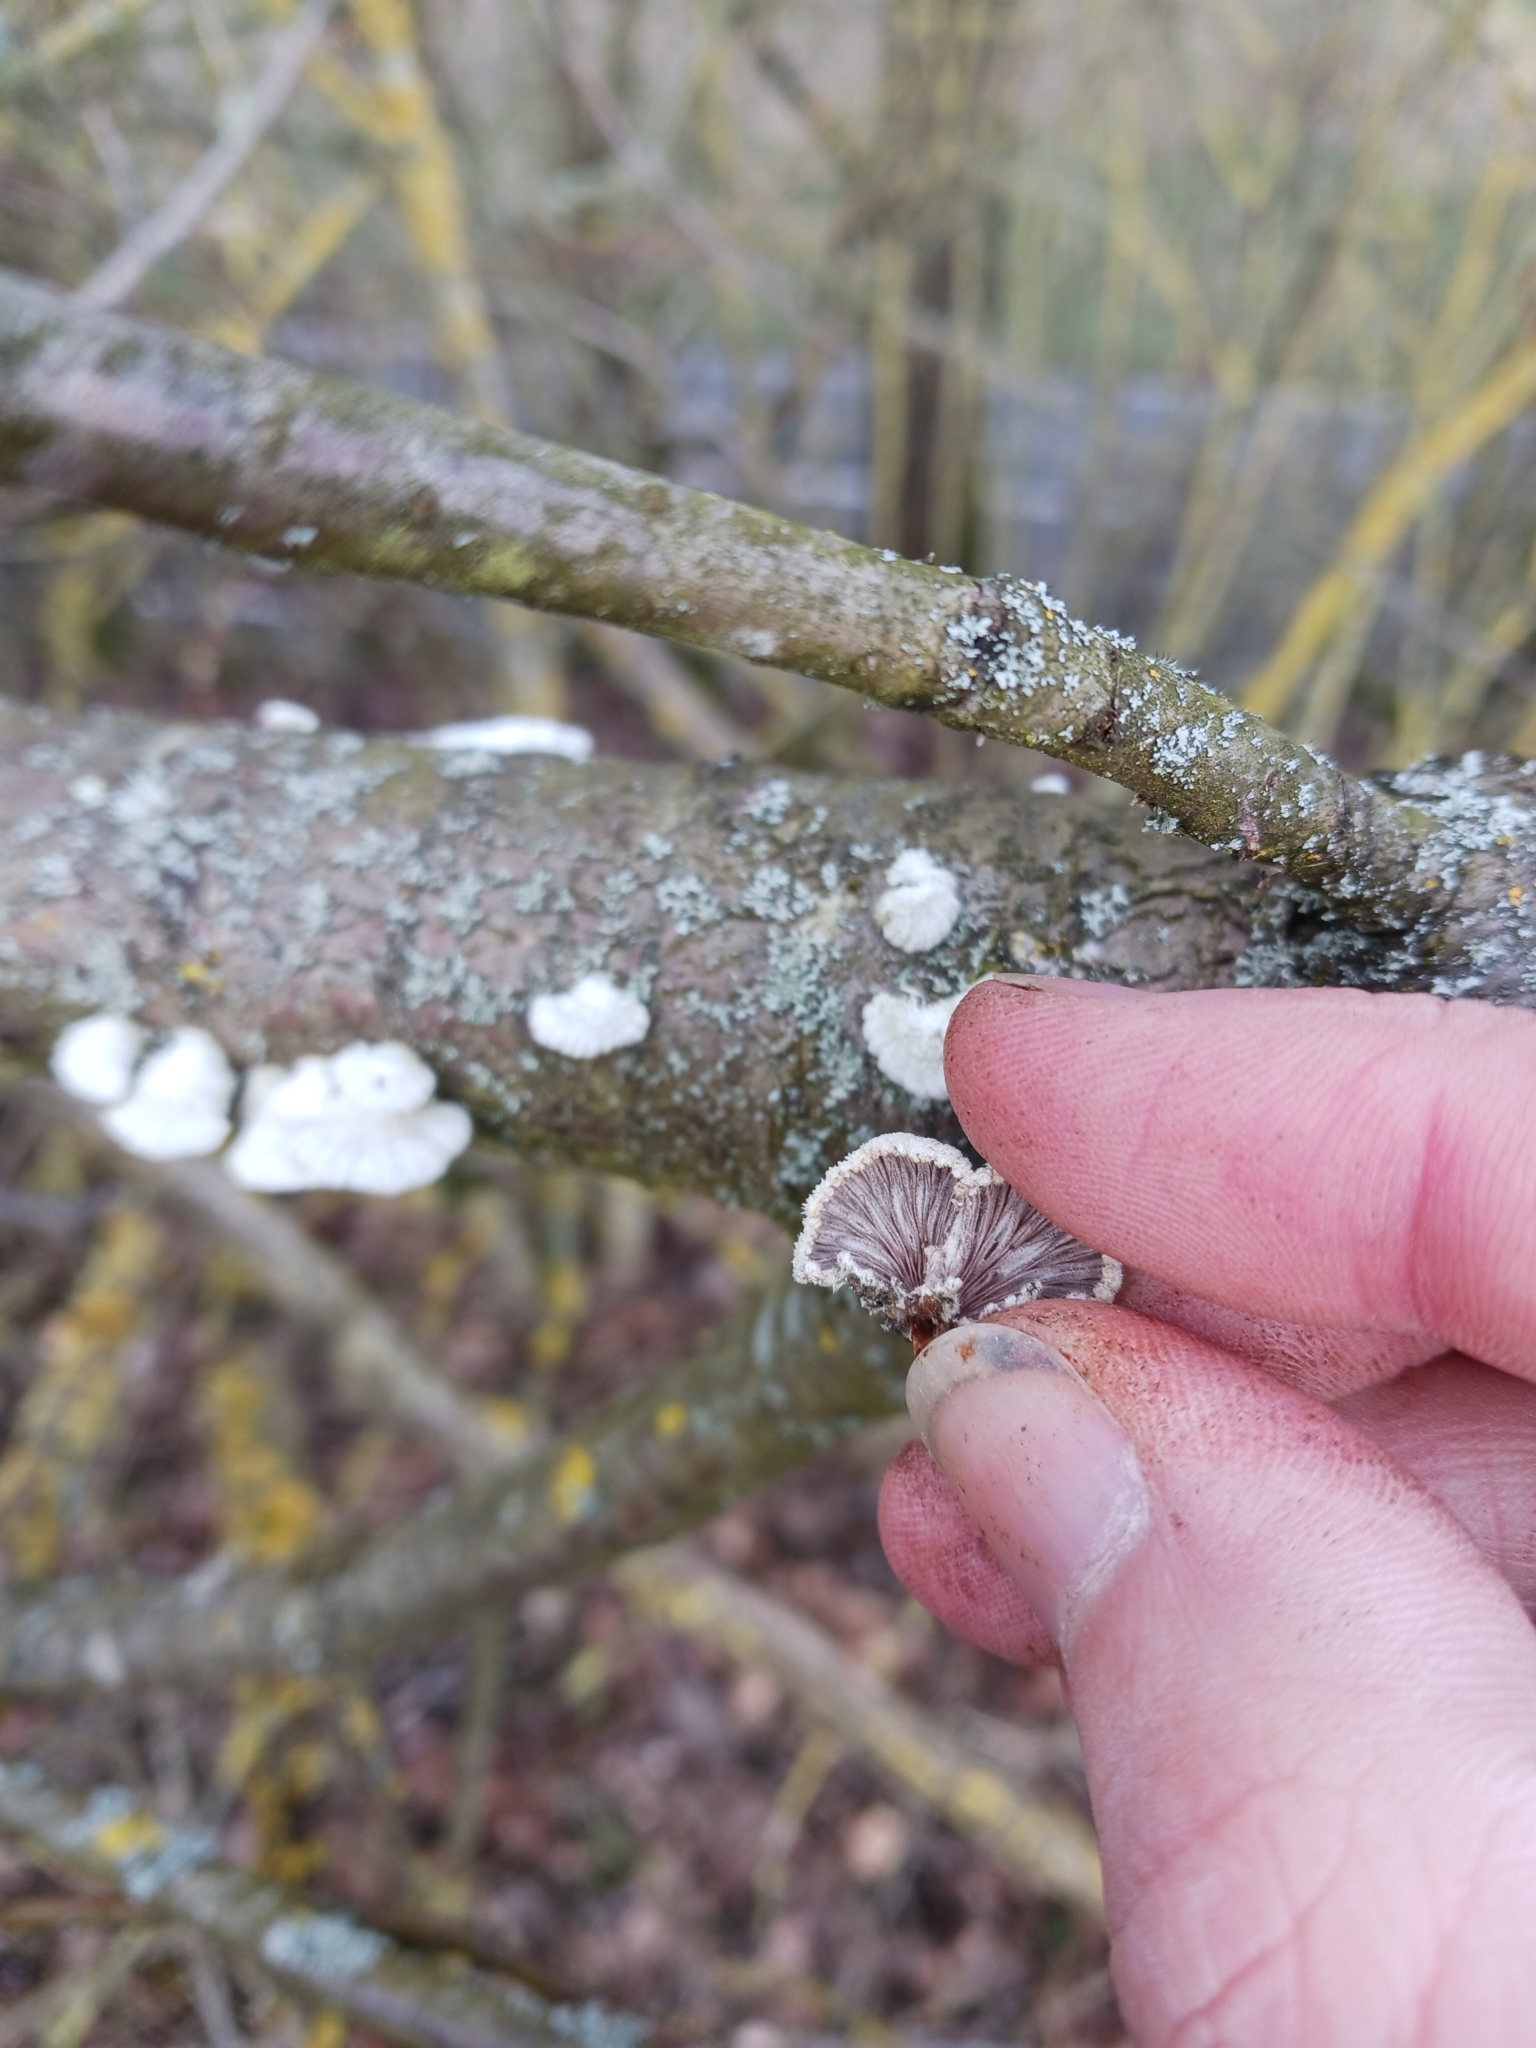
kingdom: Fungi
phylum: Basidiomycota
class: Agaricomycetes
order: Agaricales
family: Schizophyllaceae
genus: Schizophyllum
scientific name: Schizophyllum commune
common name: Common porecrust
